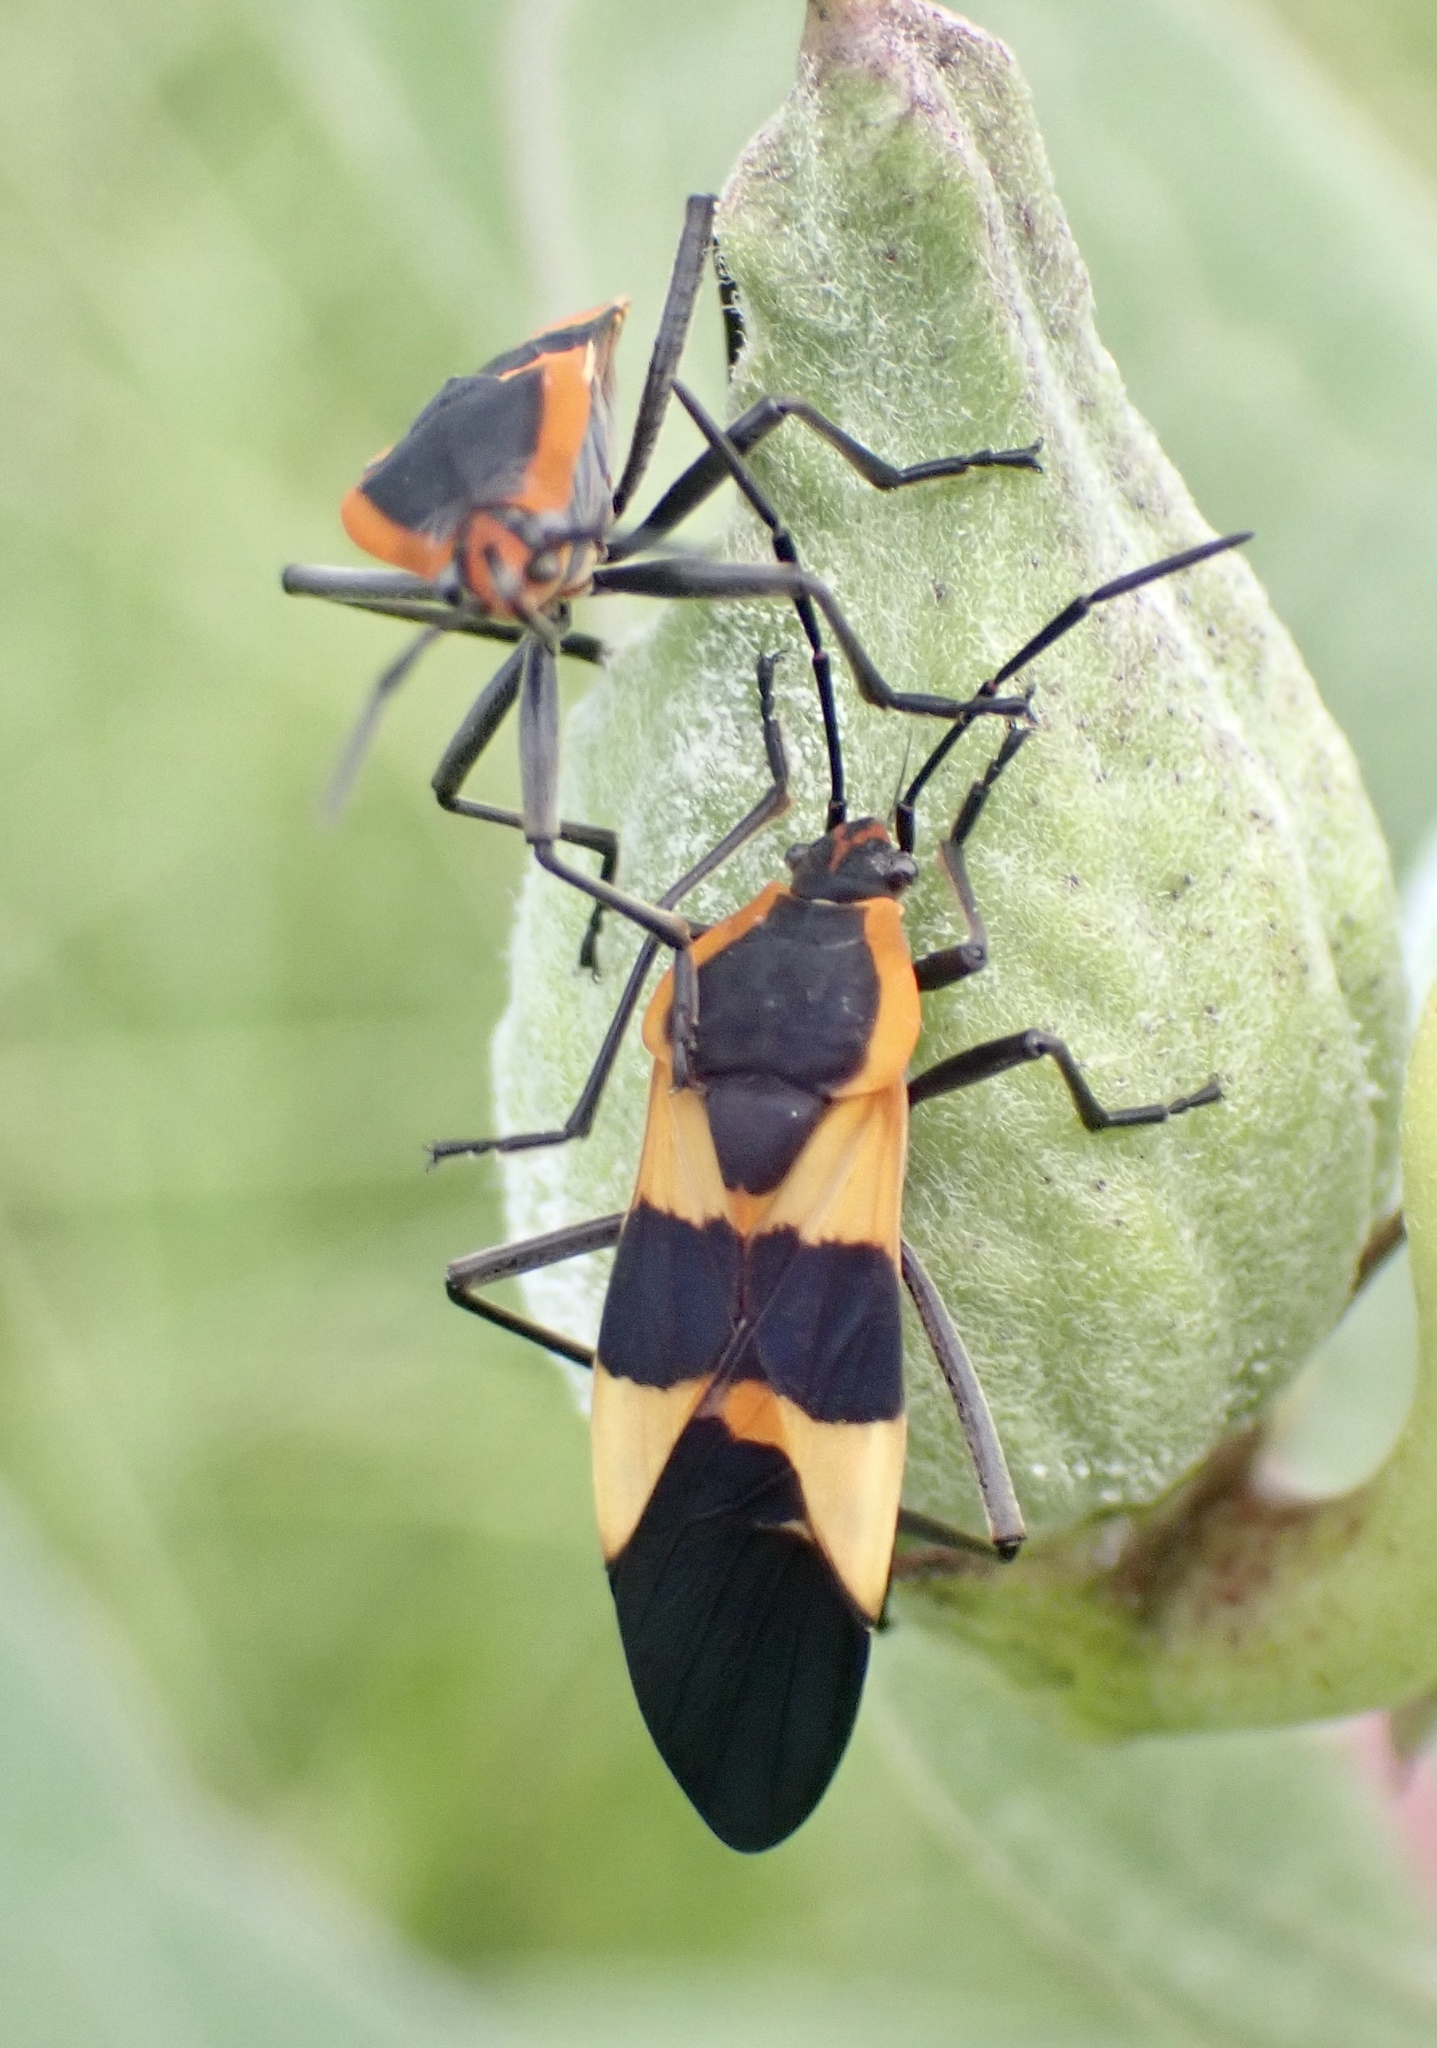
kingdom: Animalia
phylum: Arthropoda
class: Insecta
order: Hemiptera
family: Lygaeidae
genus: Oncopeltus
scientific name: Oncopeltus fasciatus
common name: Large milkweed bug
